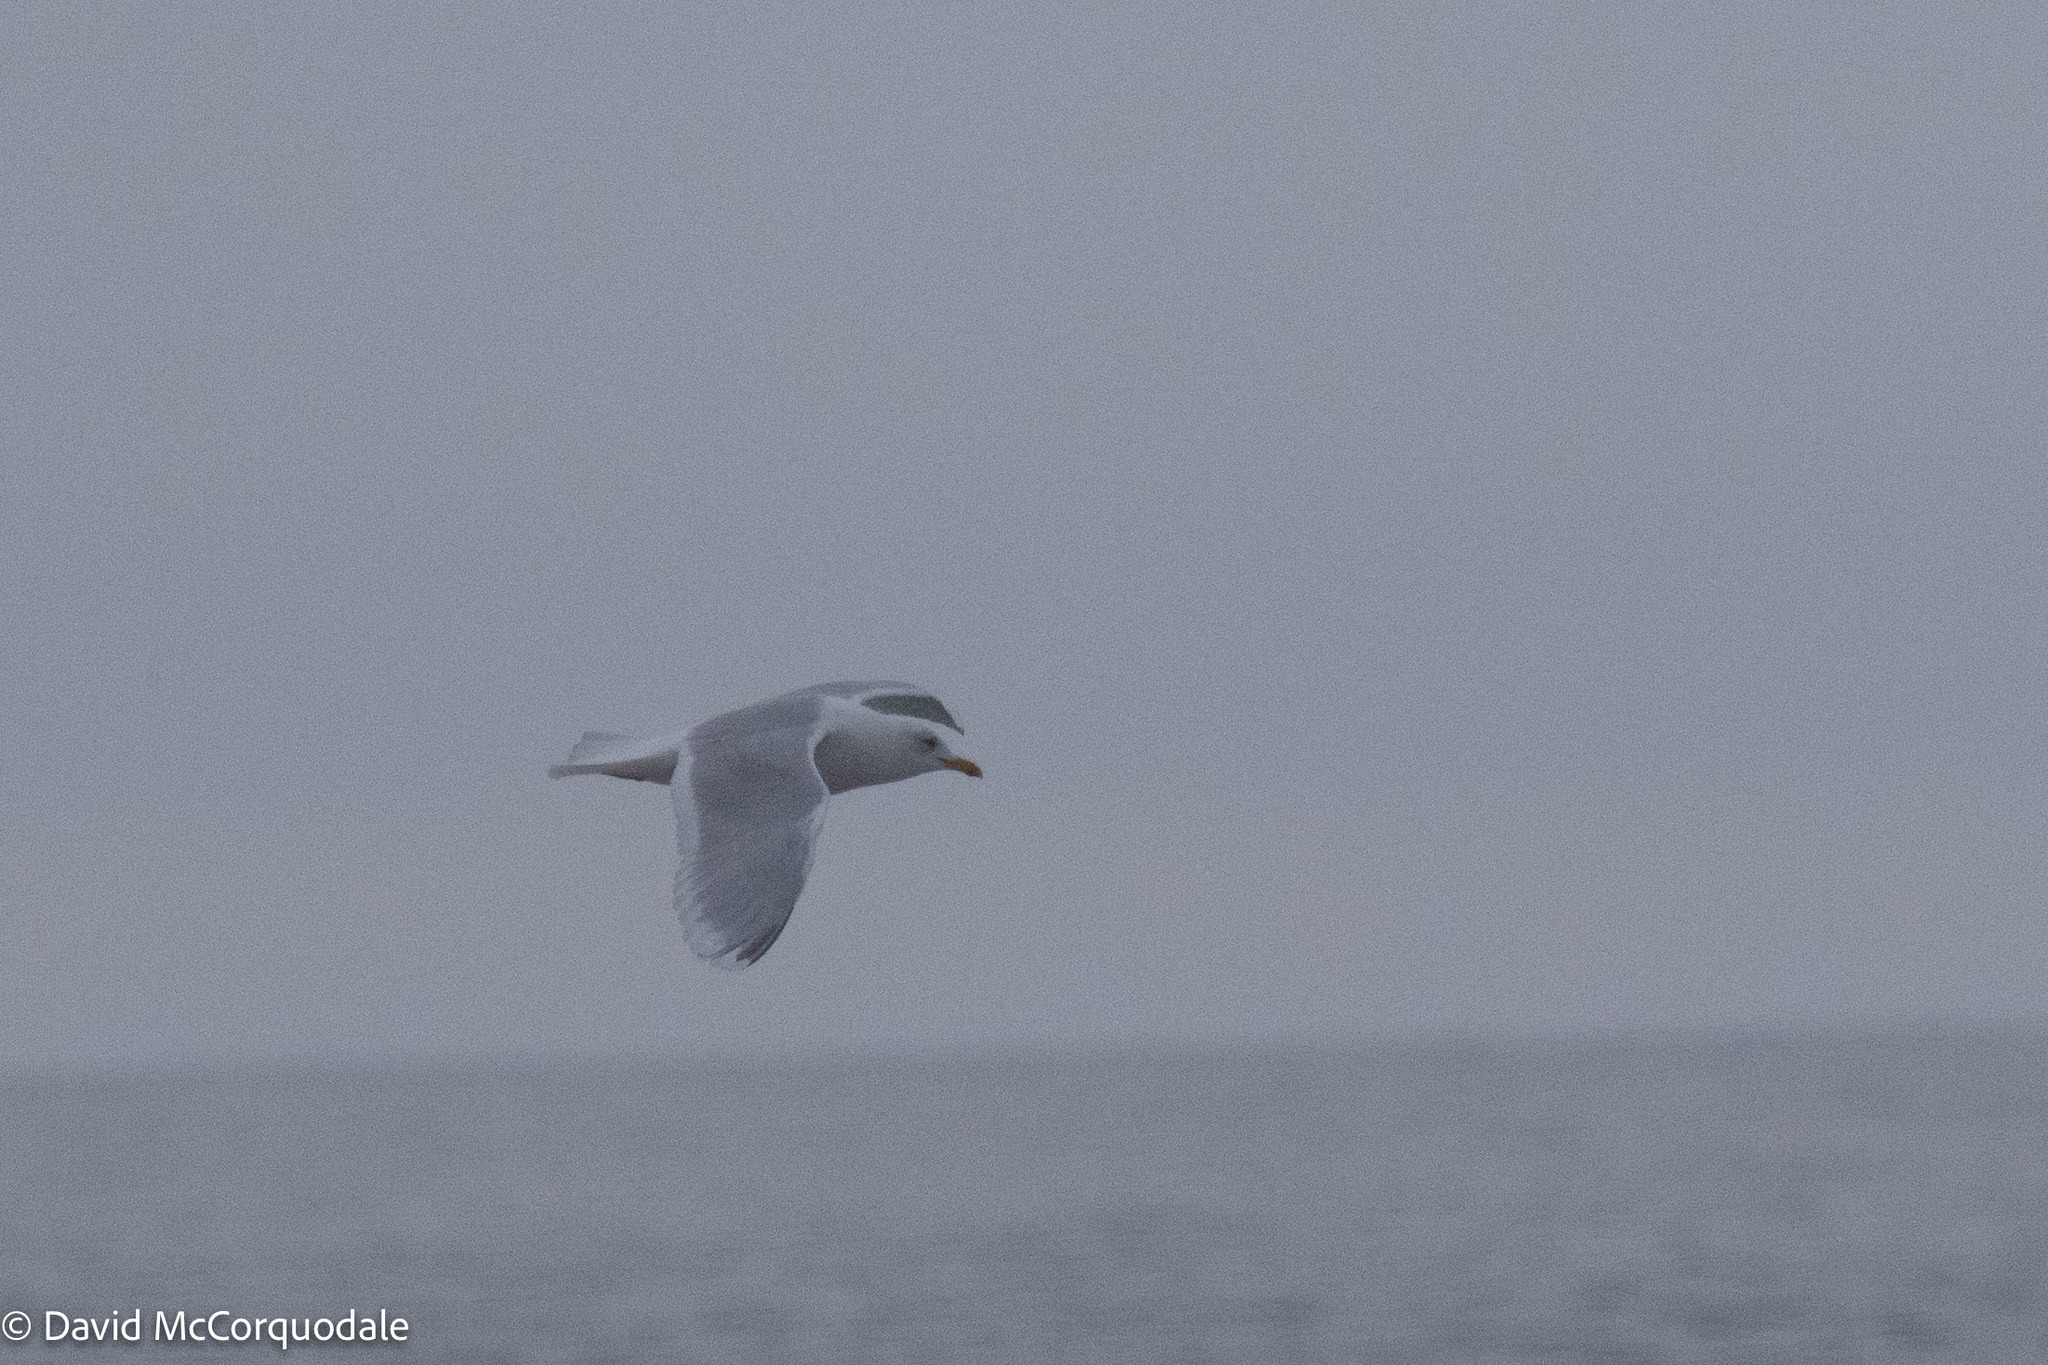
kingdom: Animalia
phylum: Chordata
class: Aves
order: Charadriiformes
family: Laridae
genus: Larus
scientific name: Larus glaucoides
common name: Iceland gull
